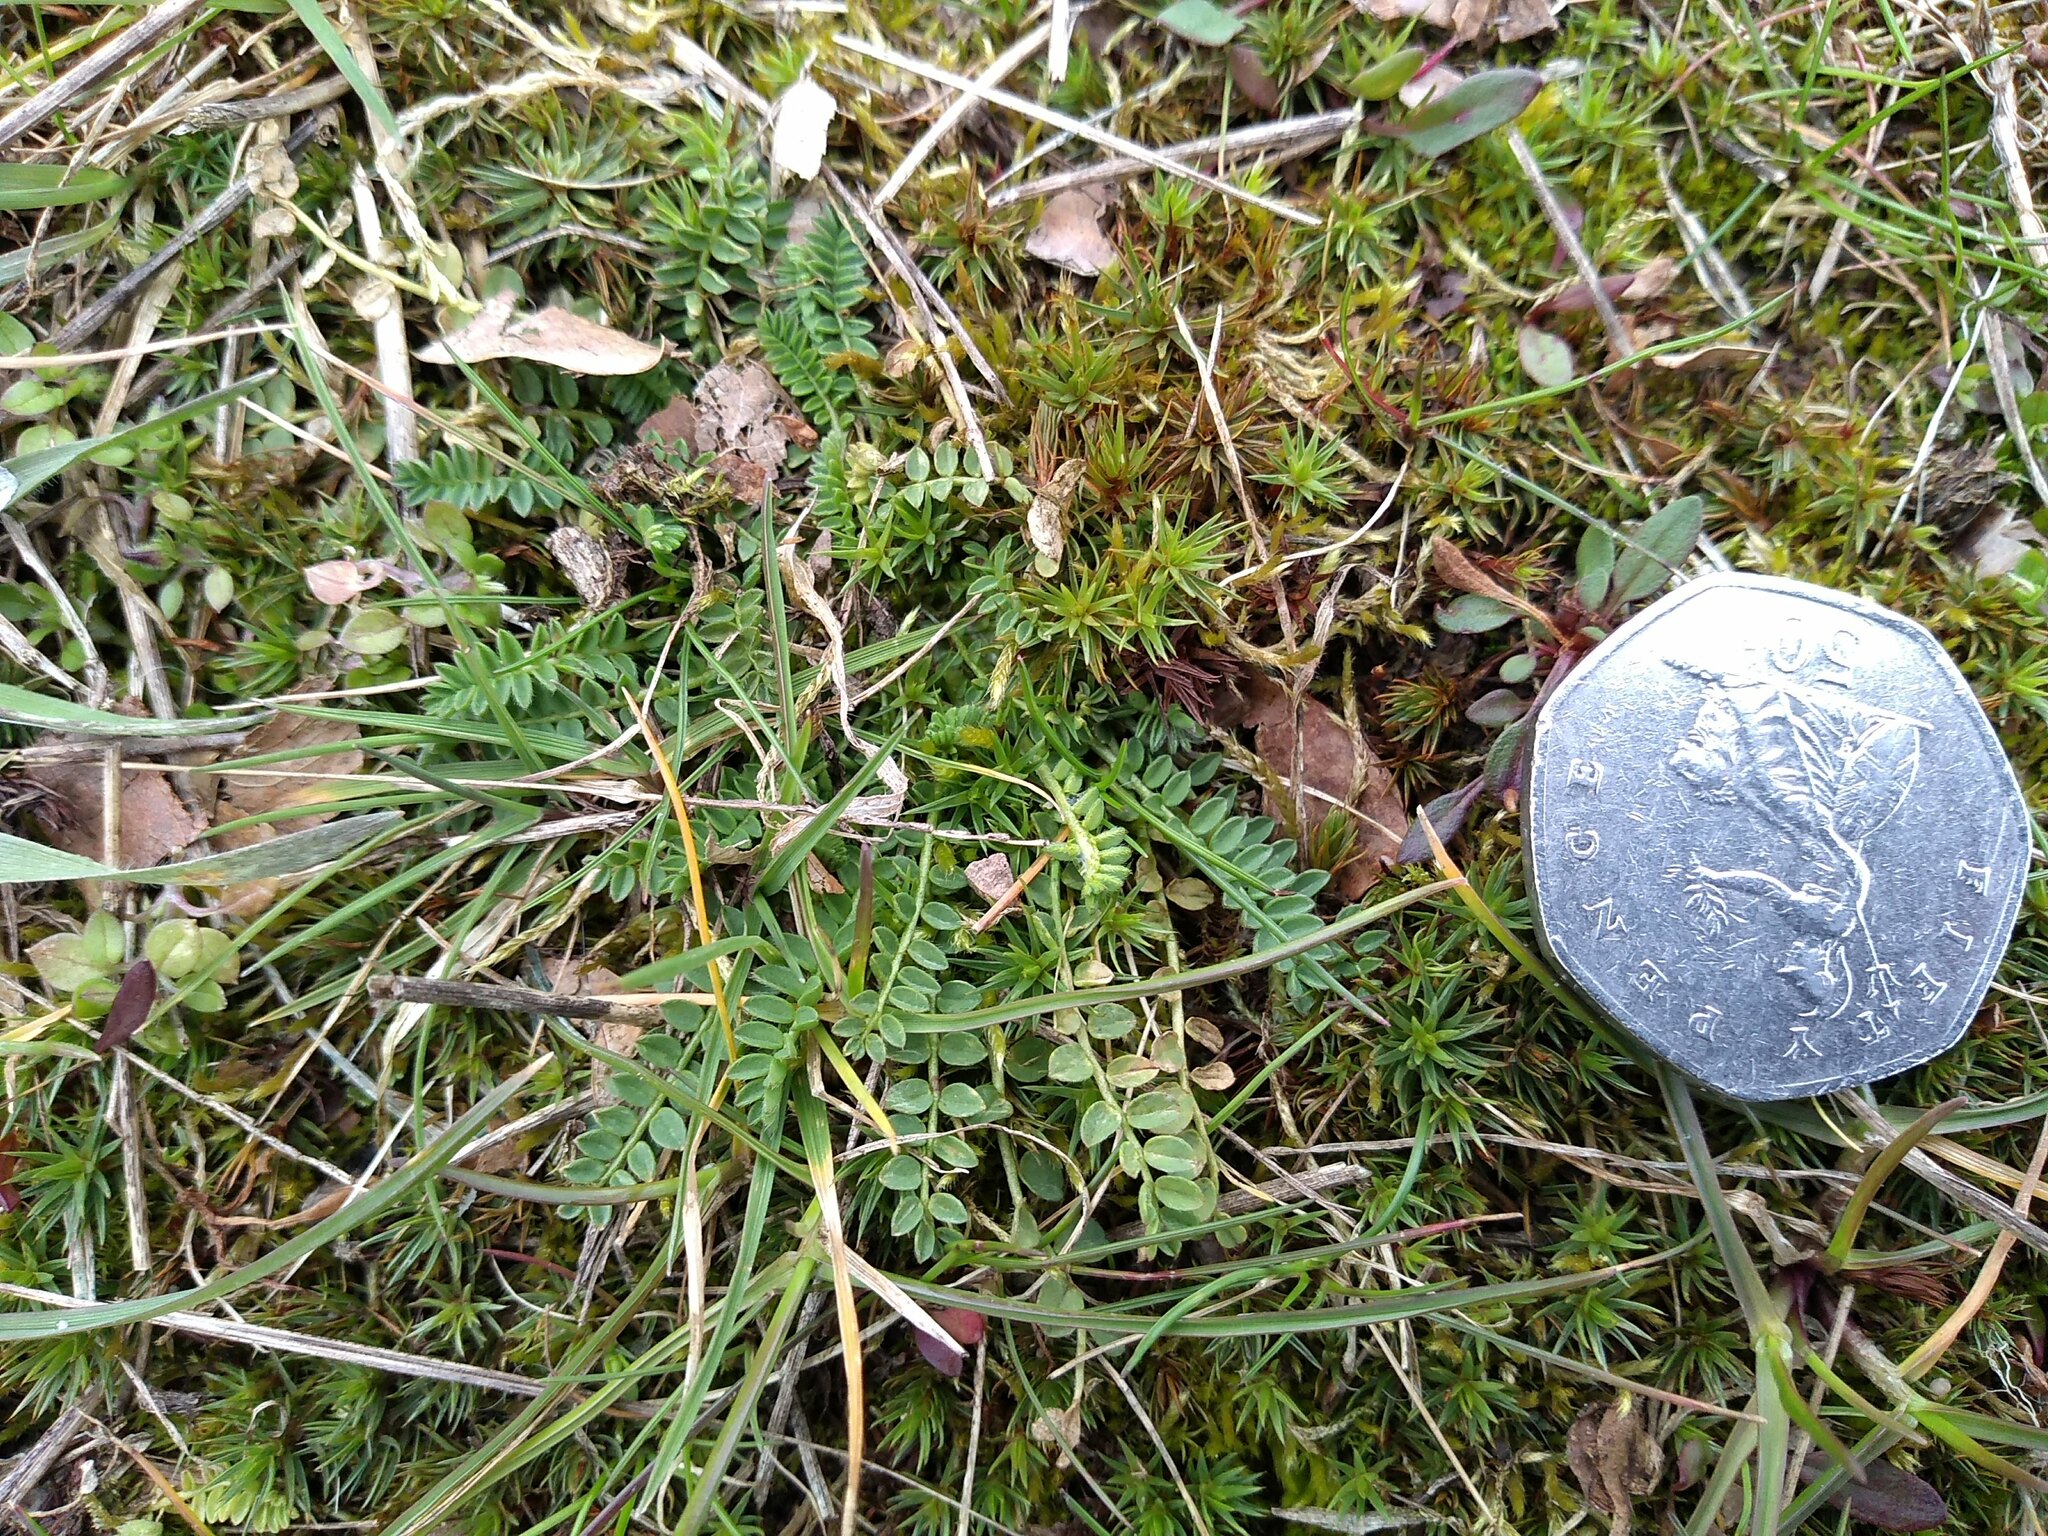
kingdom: Plantae
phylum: Tracheophyta
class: Magnoliopsida
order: Fabales
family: Fabaceae
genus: Ornithopus
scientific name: Ornithopus perpusillus
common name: Bird's-foot
